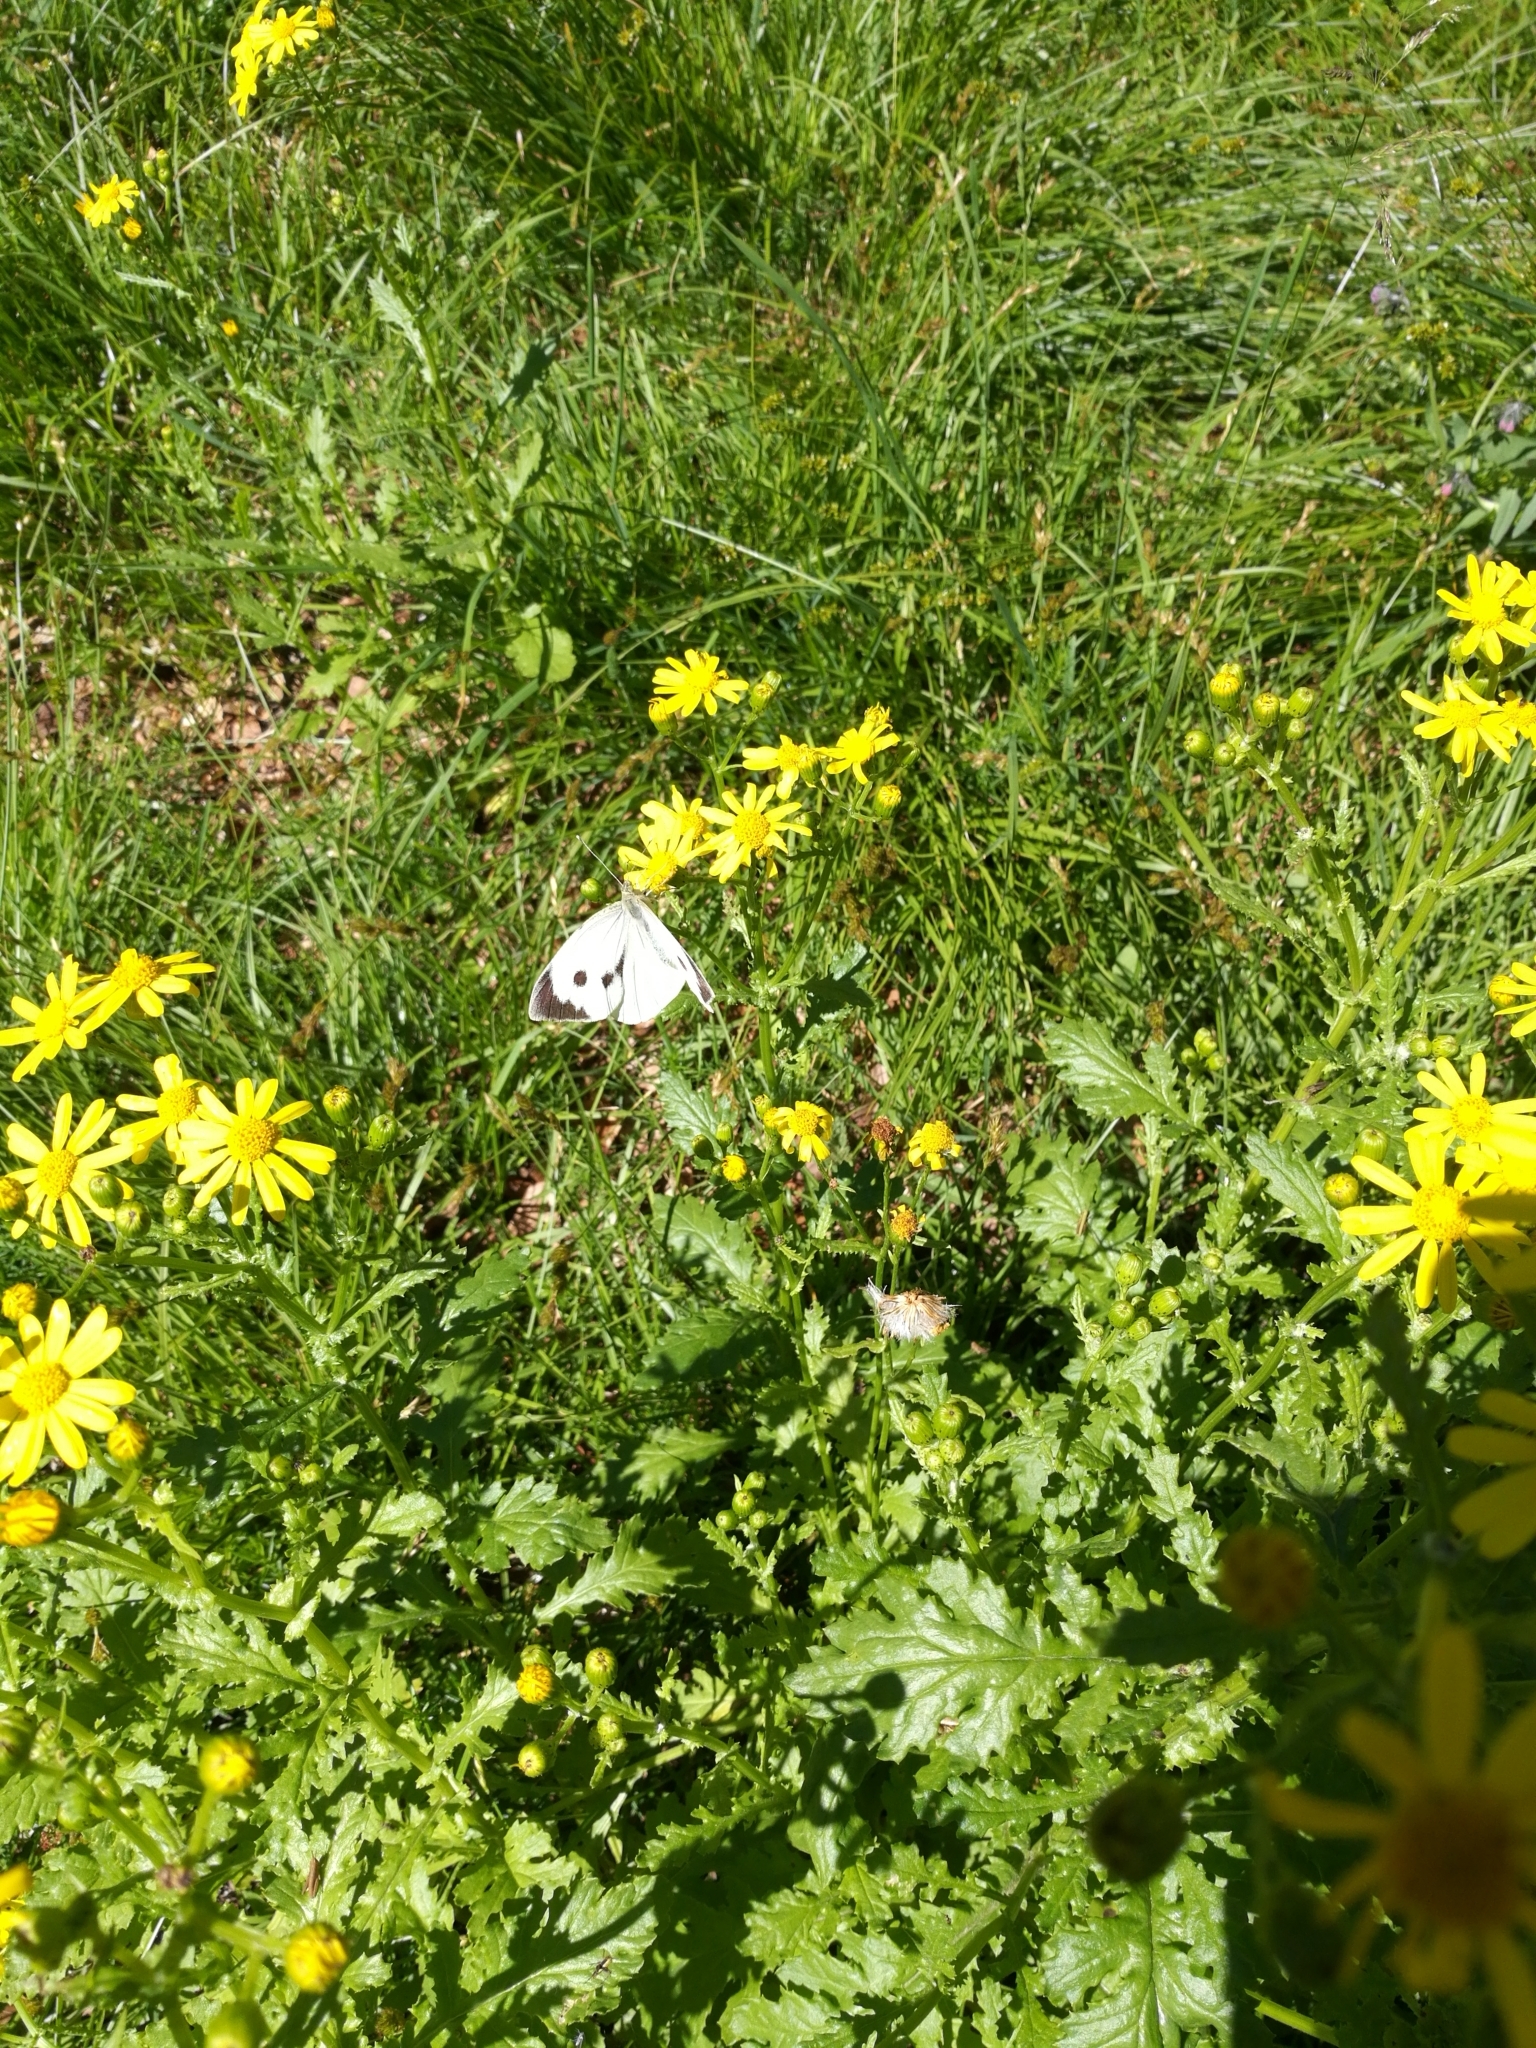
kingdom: Animalia
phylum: Arthropoda
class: Insecta
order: Lepidoptera
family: Pieridae
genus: Pieris
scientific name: Pieris brassicae
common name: Large white
